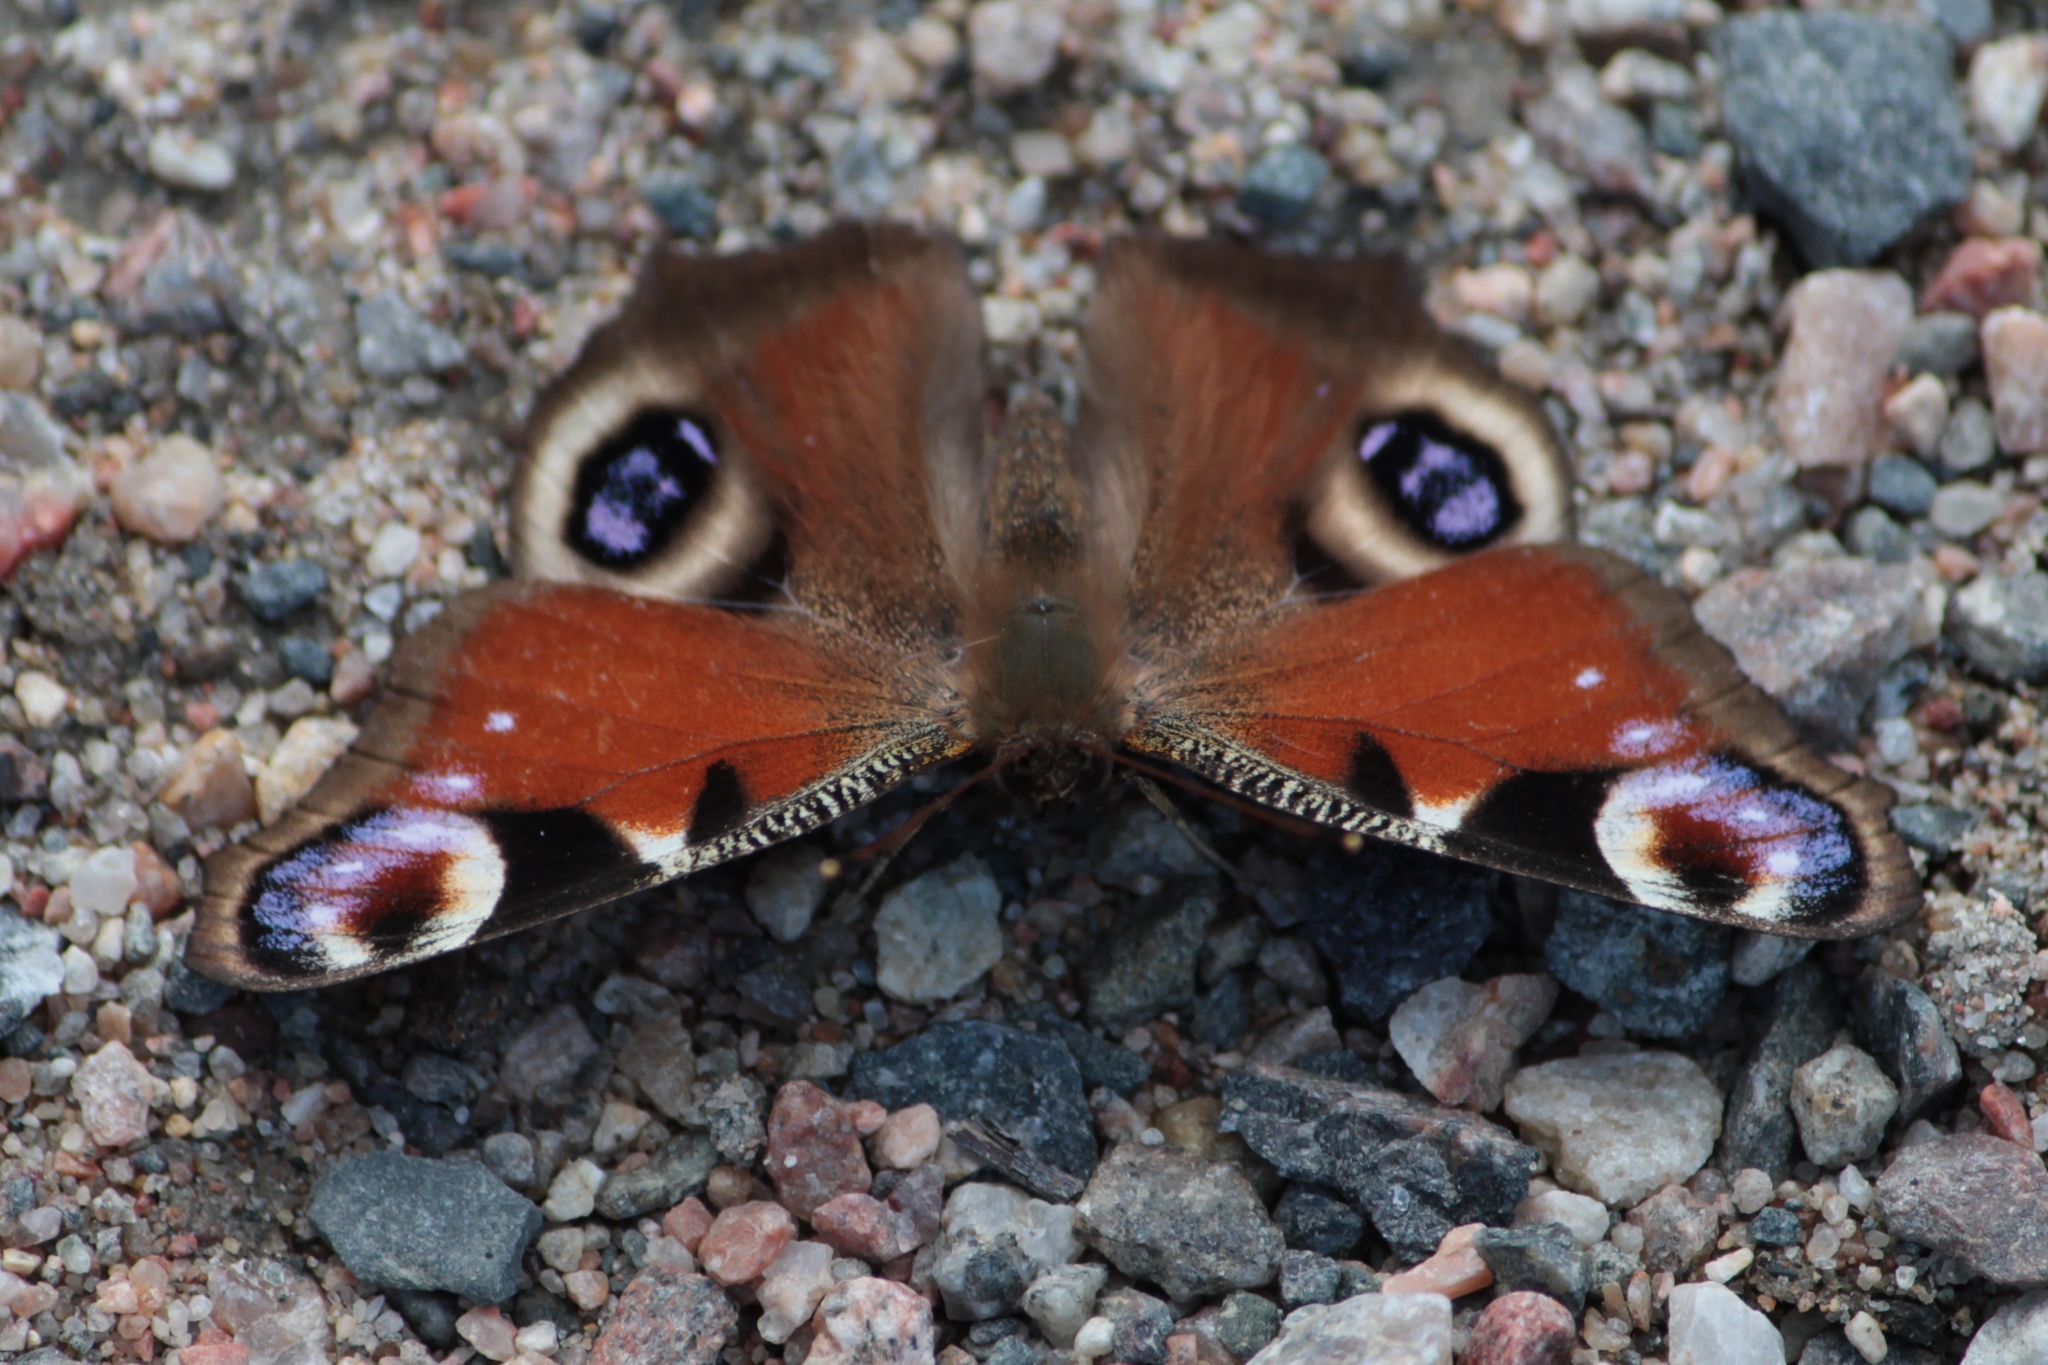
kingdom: Animalia
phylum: Arthropoda
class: Insecta
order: Lepidoptera
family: Nymphalidae
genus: Aglais
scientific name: Aglais io
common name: Peacock
